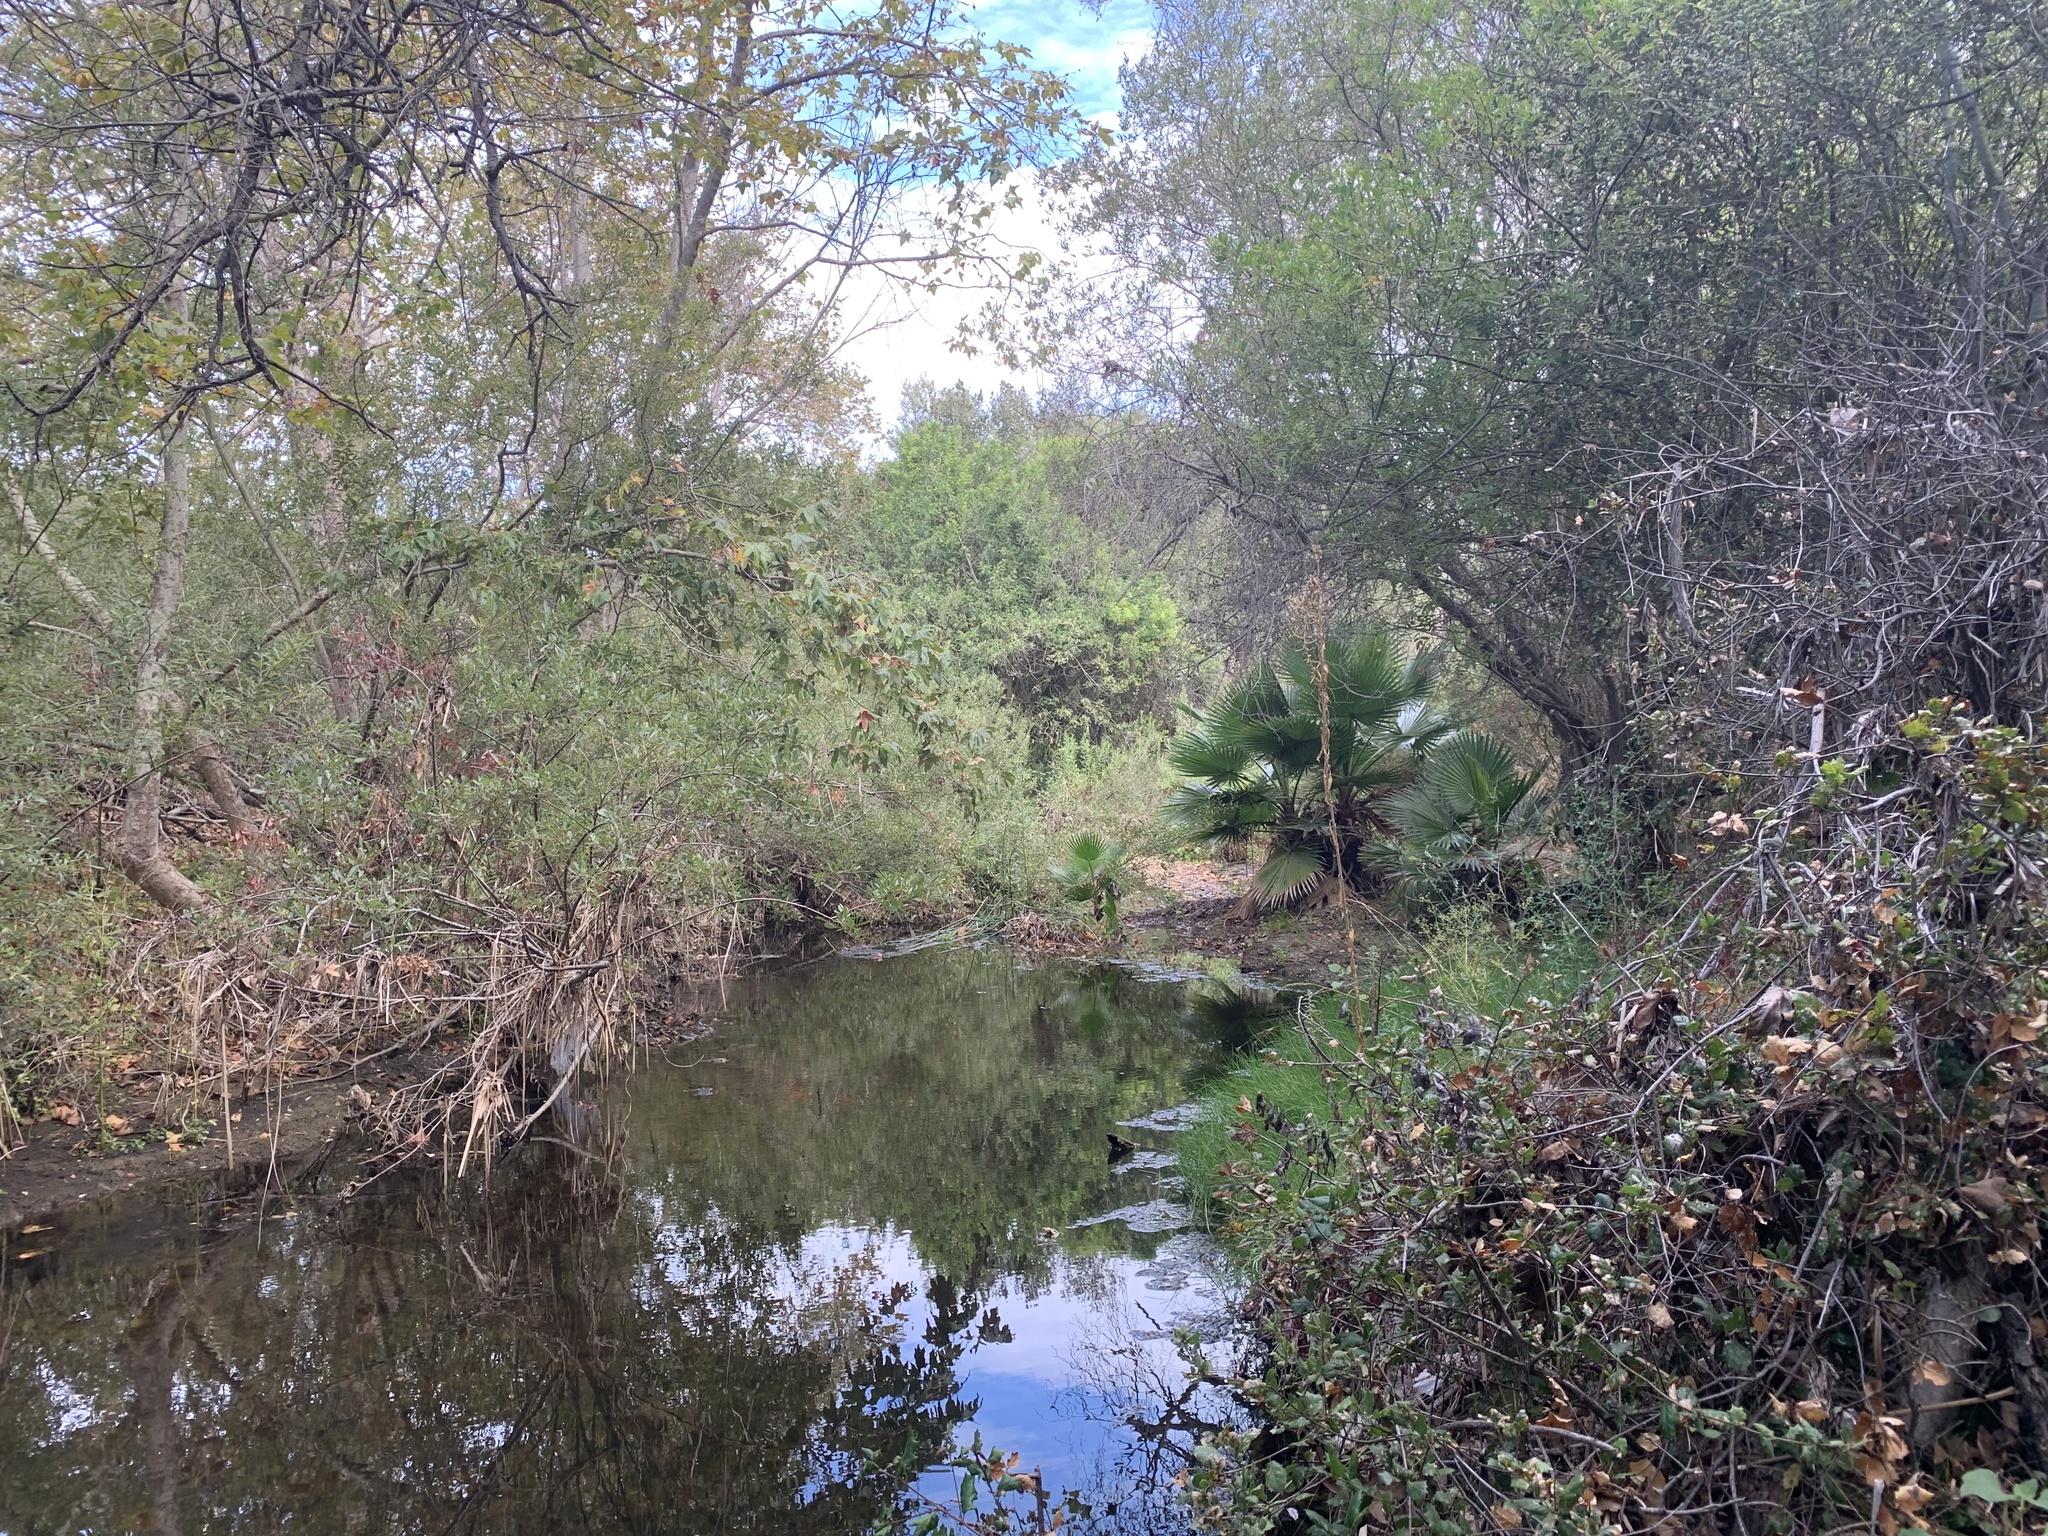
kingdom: Plantae
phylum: Tracheophyta
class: Liliopsida
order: Arecales
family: Arecaceae
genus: Washingtonia
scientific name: Washingtonia robusta
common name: Mexican fan palm
